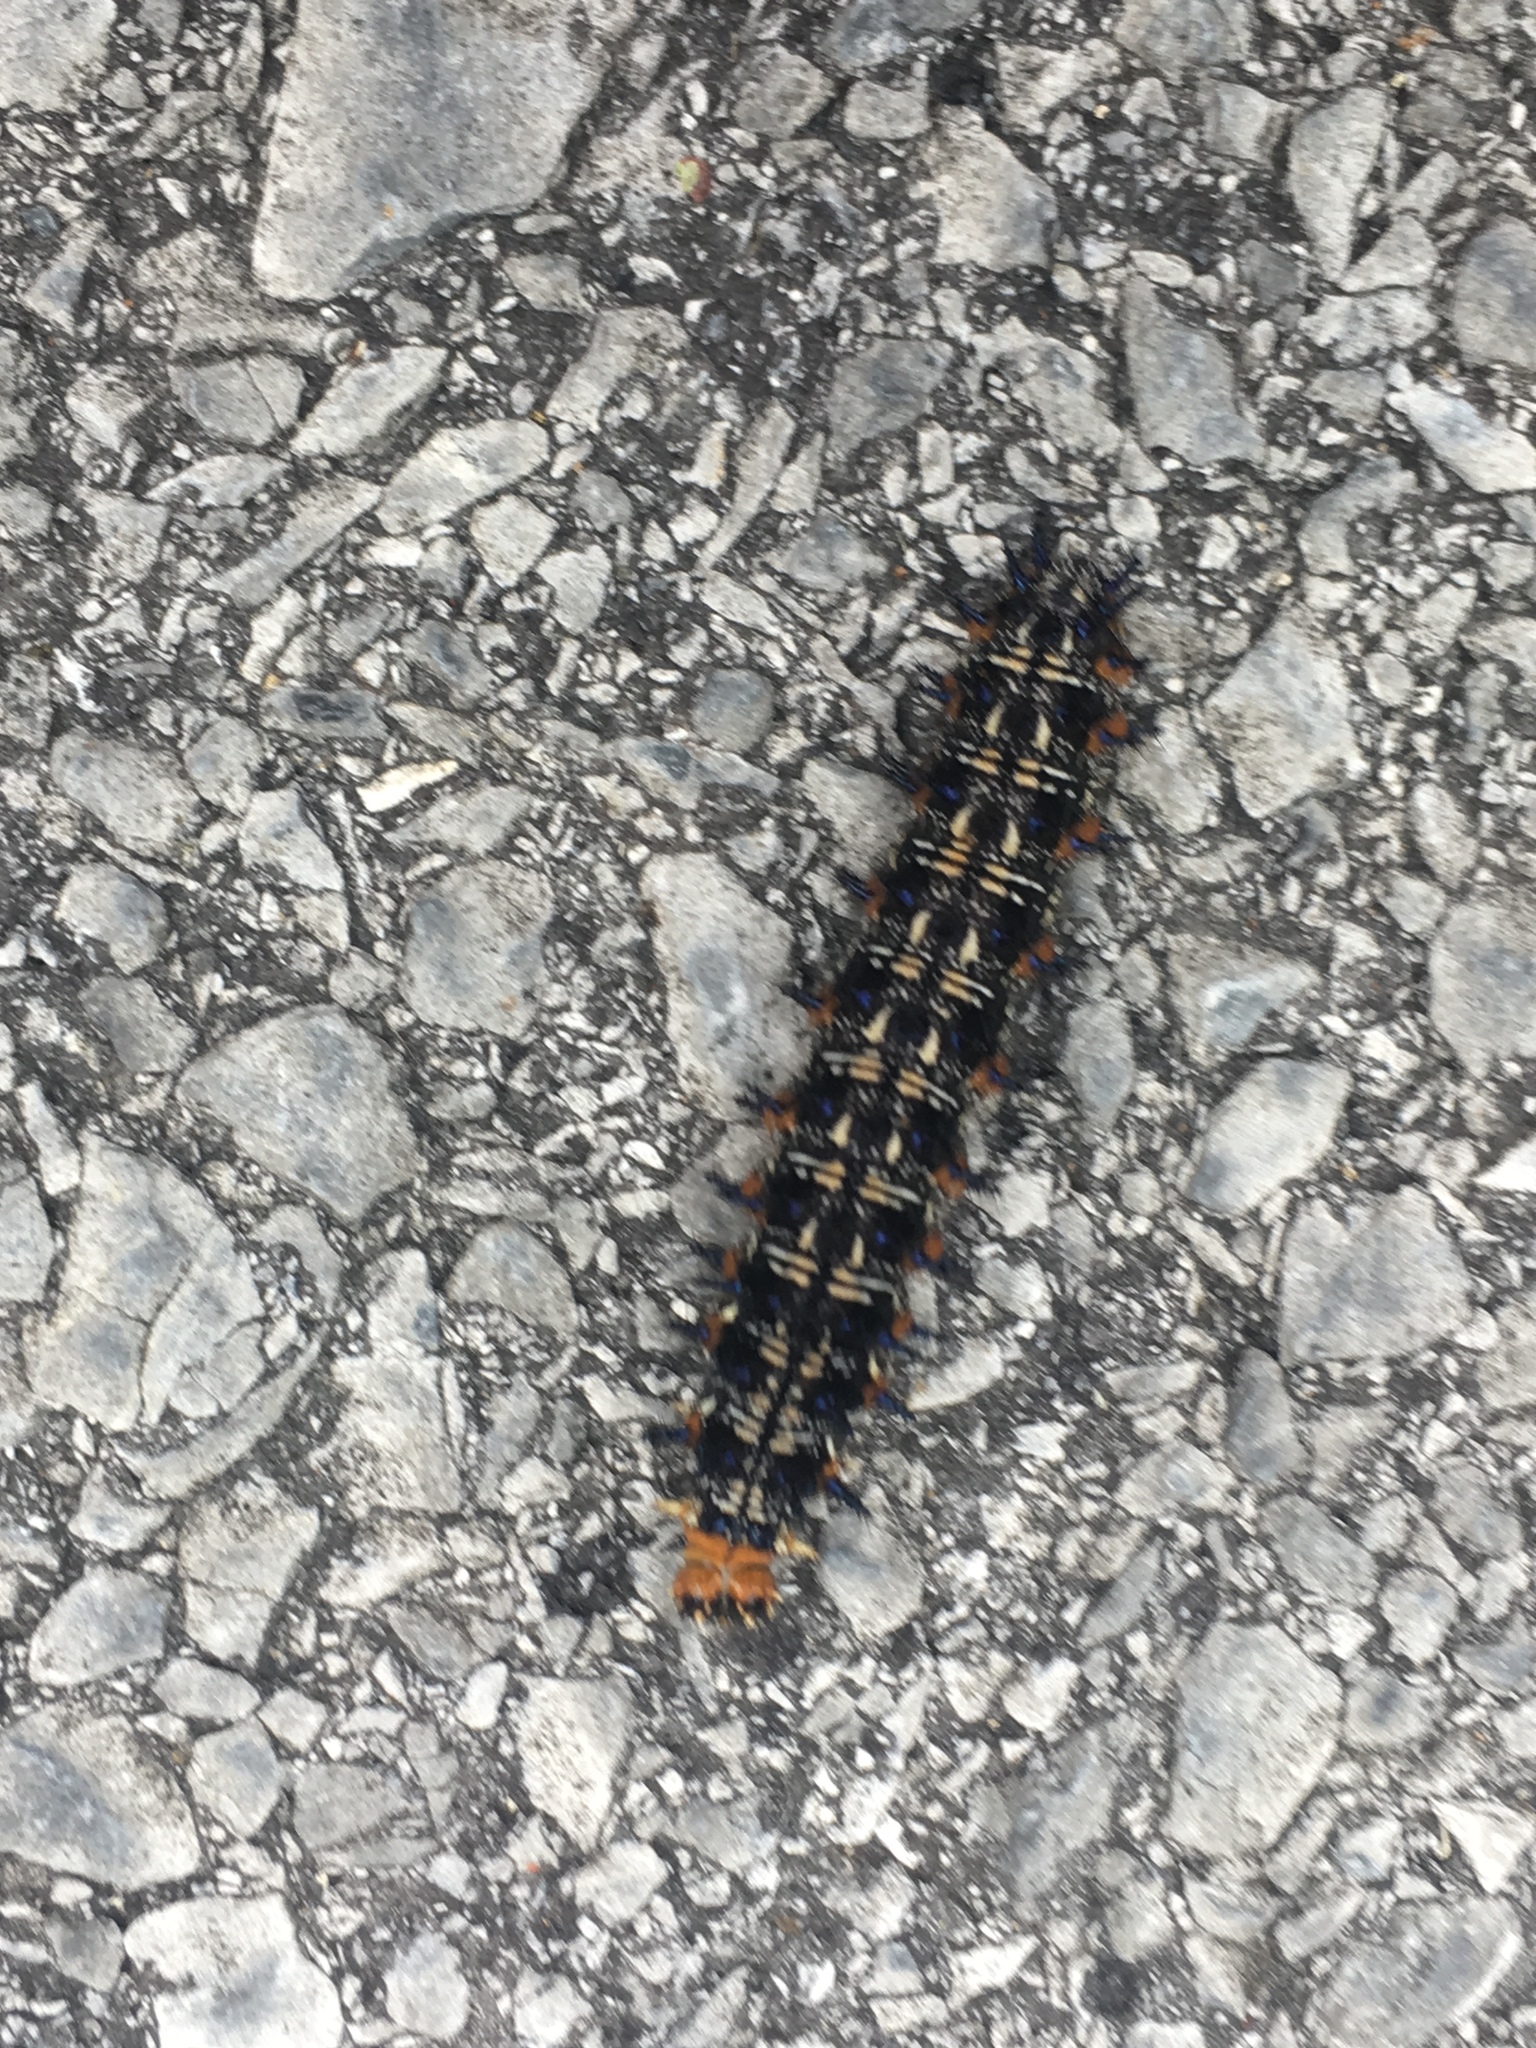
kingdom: Animalia
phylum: Arthropoda
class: Insecta
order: Lepidoptera
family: Nymphalidae
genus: Junonia
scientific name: Junonia coenia
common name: Common buckeye
